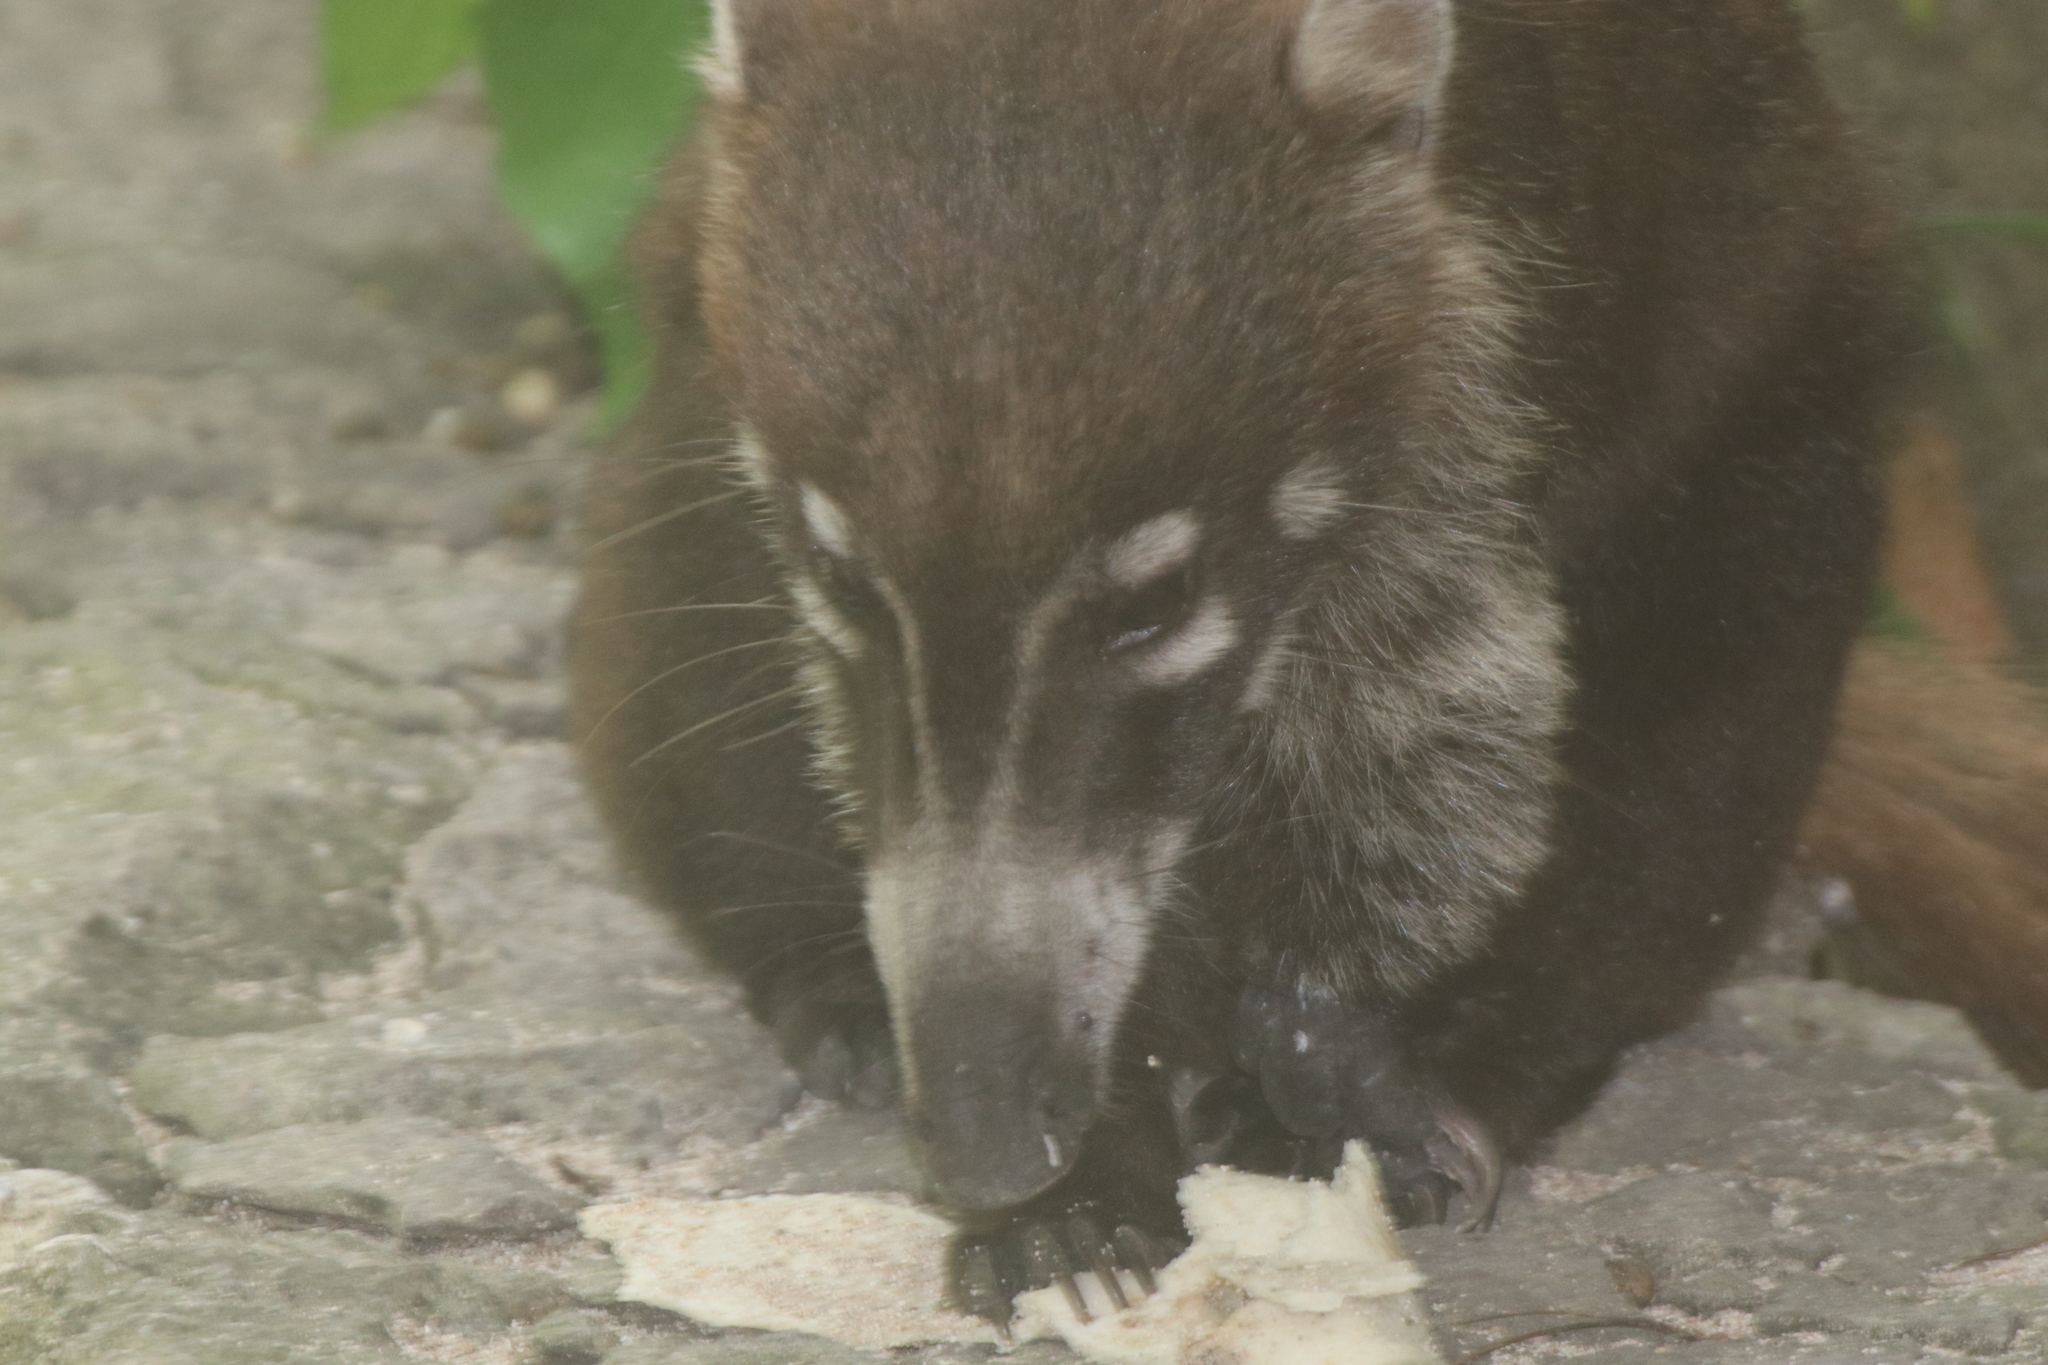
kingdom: Animalia
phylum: Chordata
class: Mammalia
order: Carnivora
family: Procyonidae
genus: Nasua
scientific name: Nasua narica
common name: White-nosed coati
